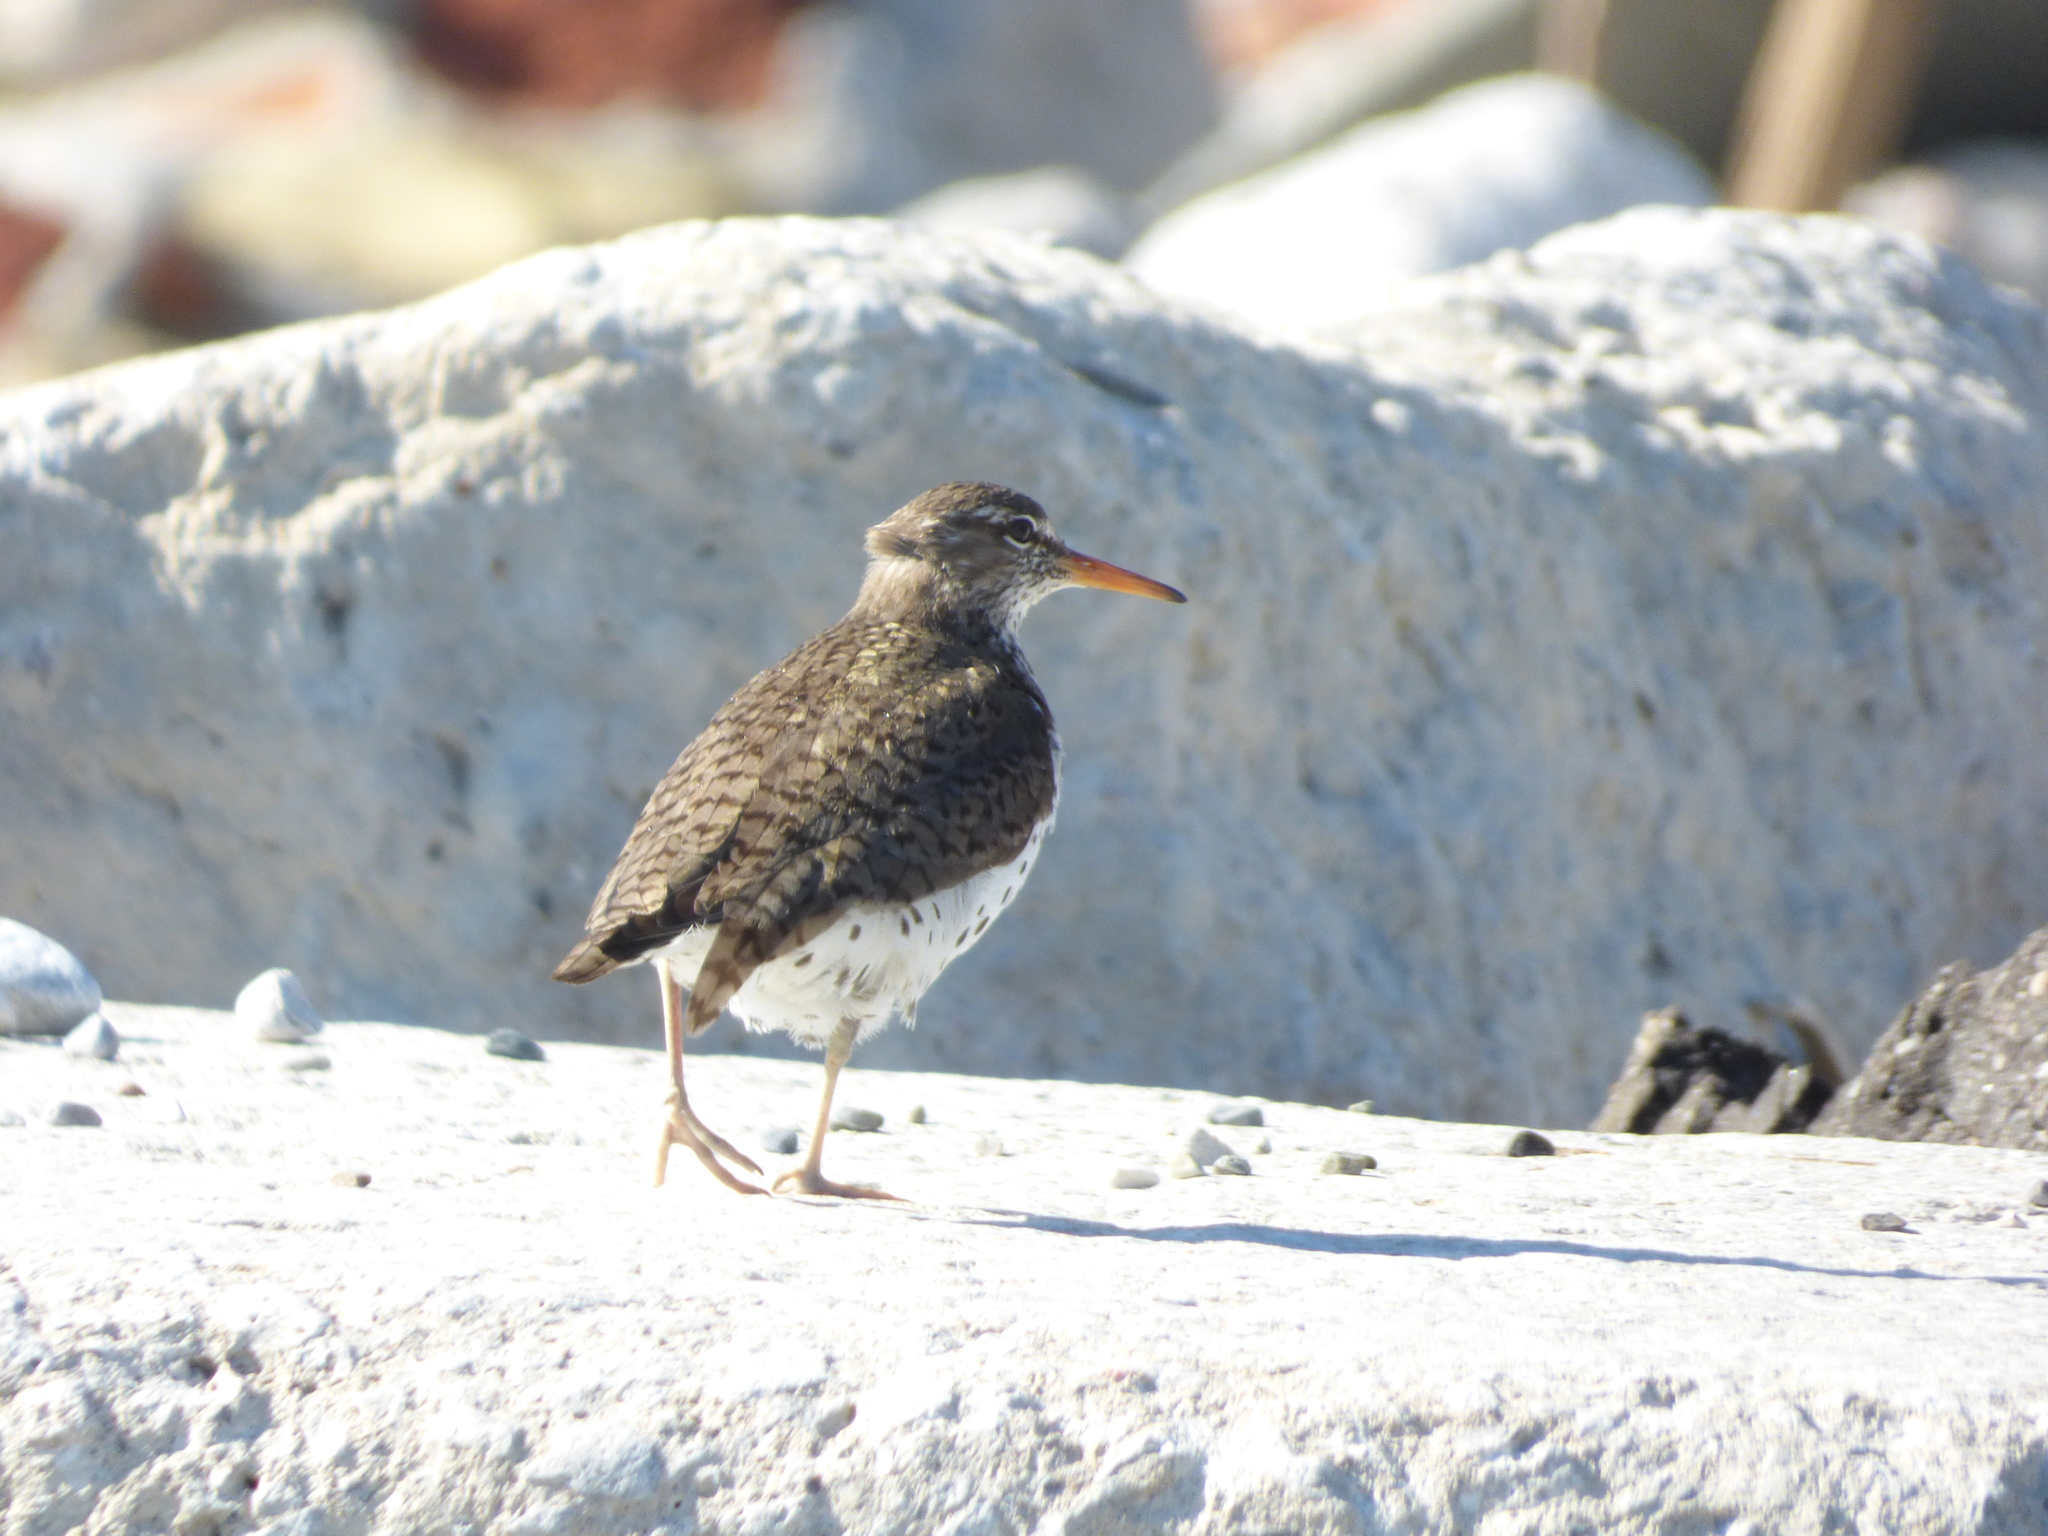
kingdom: Animalia
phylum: Chordata
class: Aves
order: Charadriiformes
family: Scolopacidae
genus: Actitis
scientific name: Actitis macularius
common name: Spotted sandpiper
